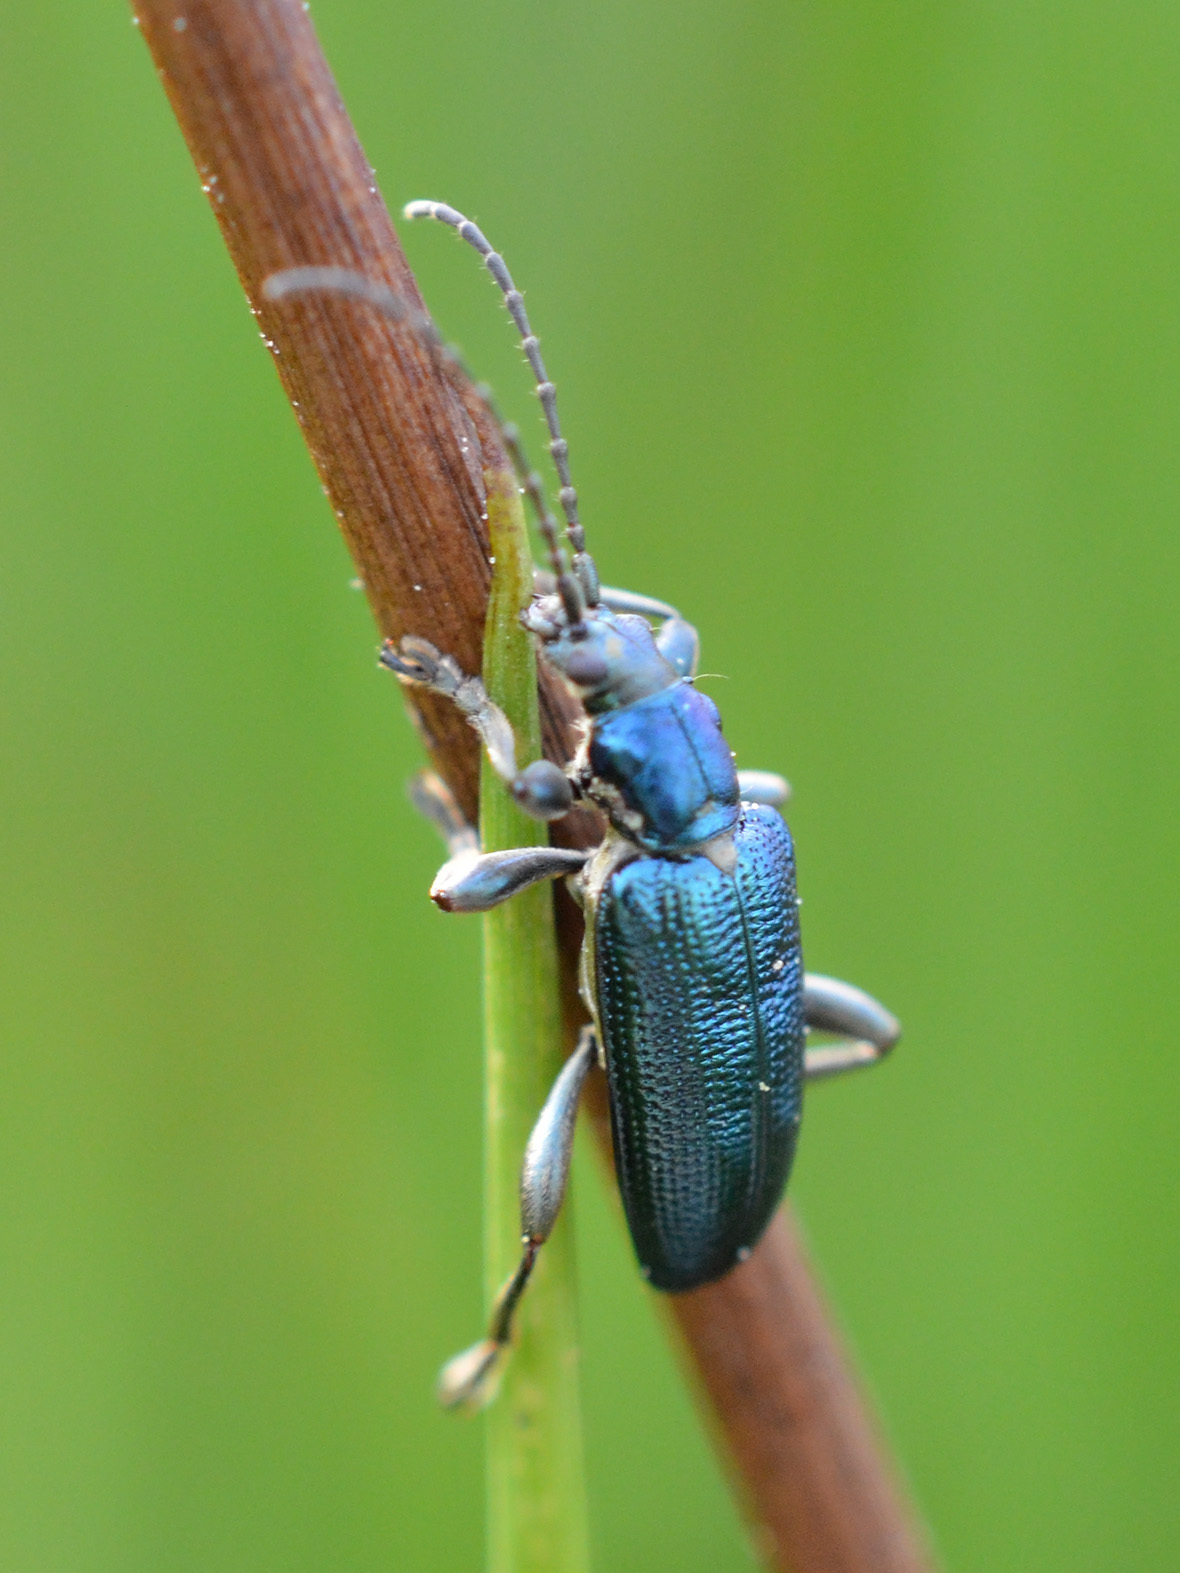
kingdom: Animalia
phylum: Arthropoda
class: Insecta
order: Coleoptera
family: Chrysomelidae
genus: Plateumaris
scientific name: Plateumaris sericea
